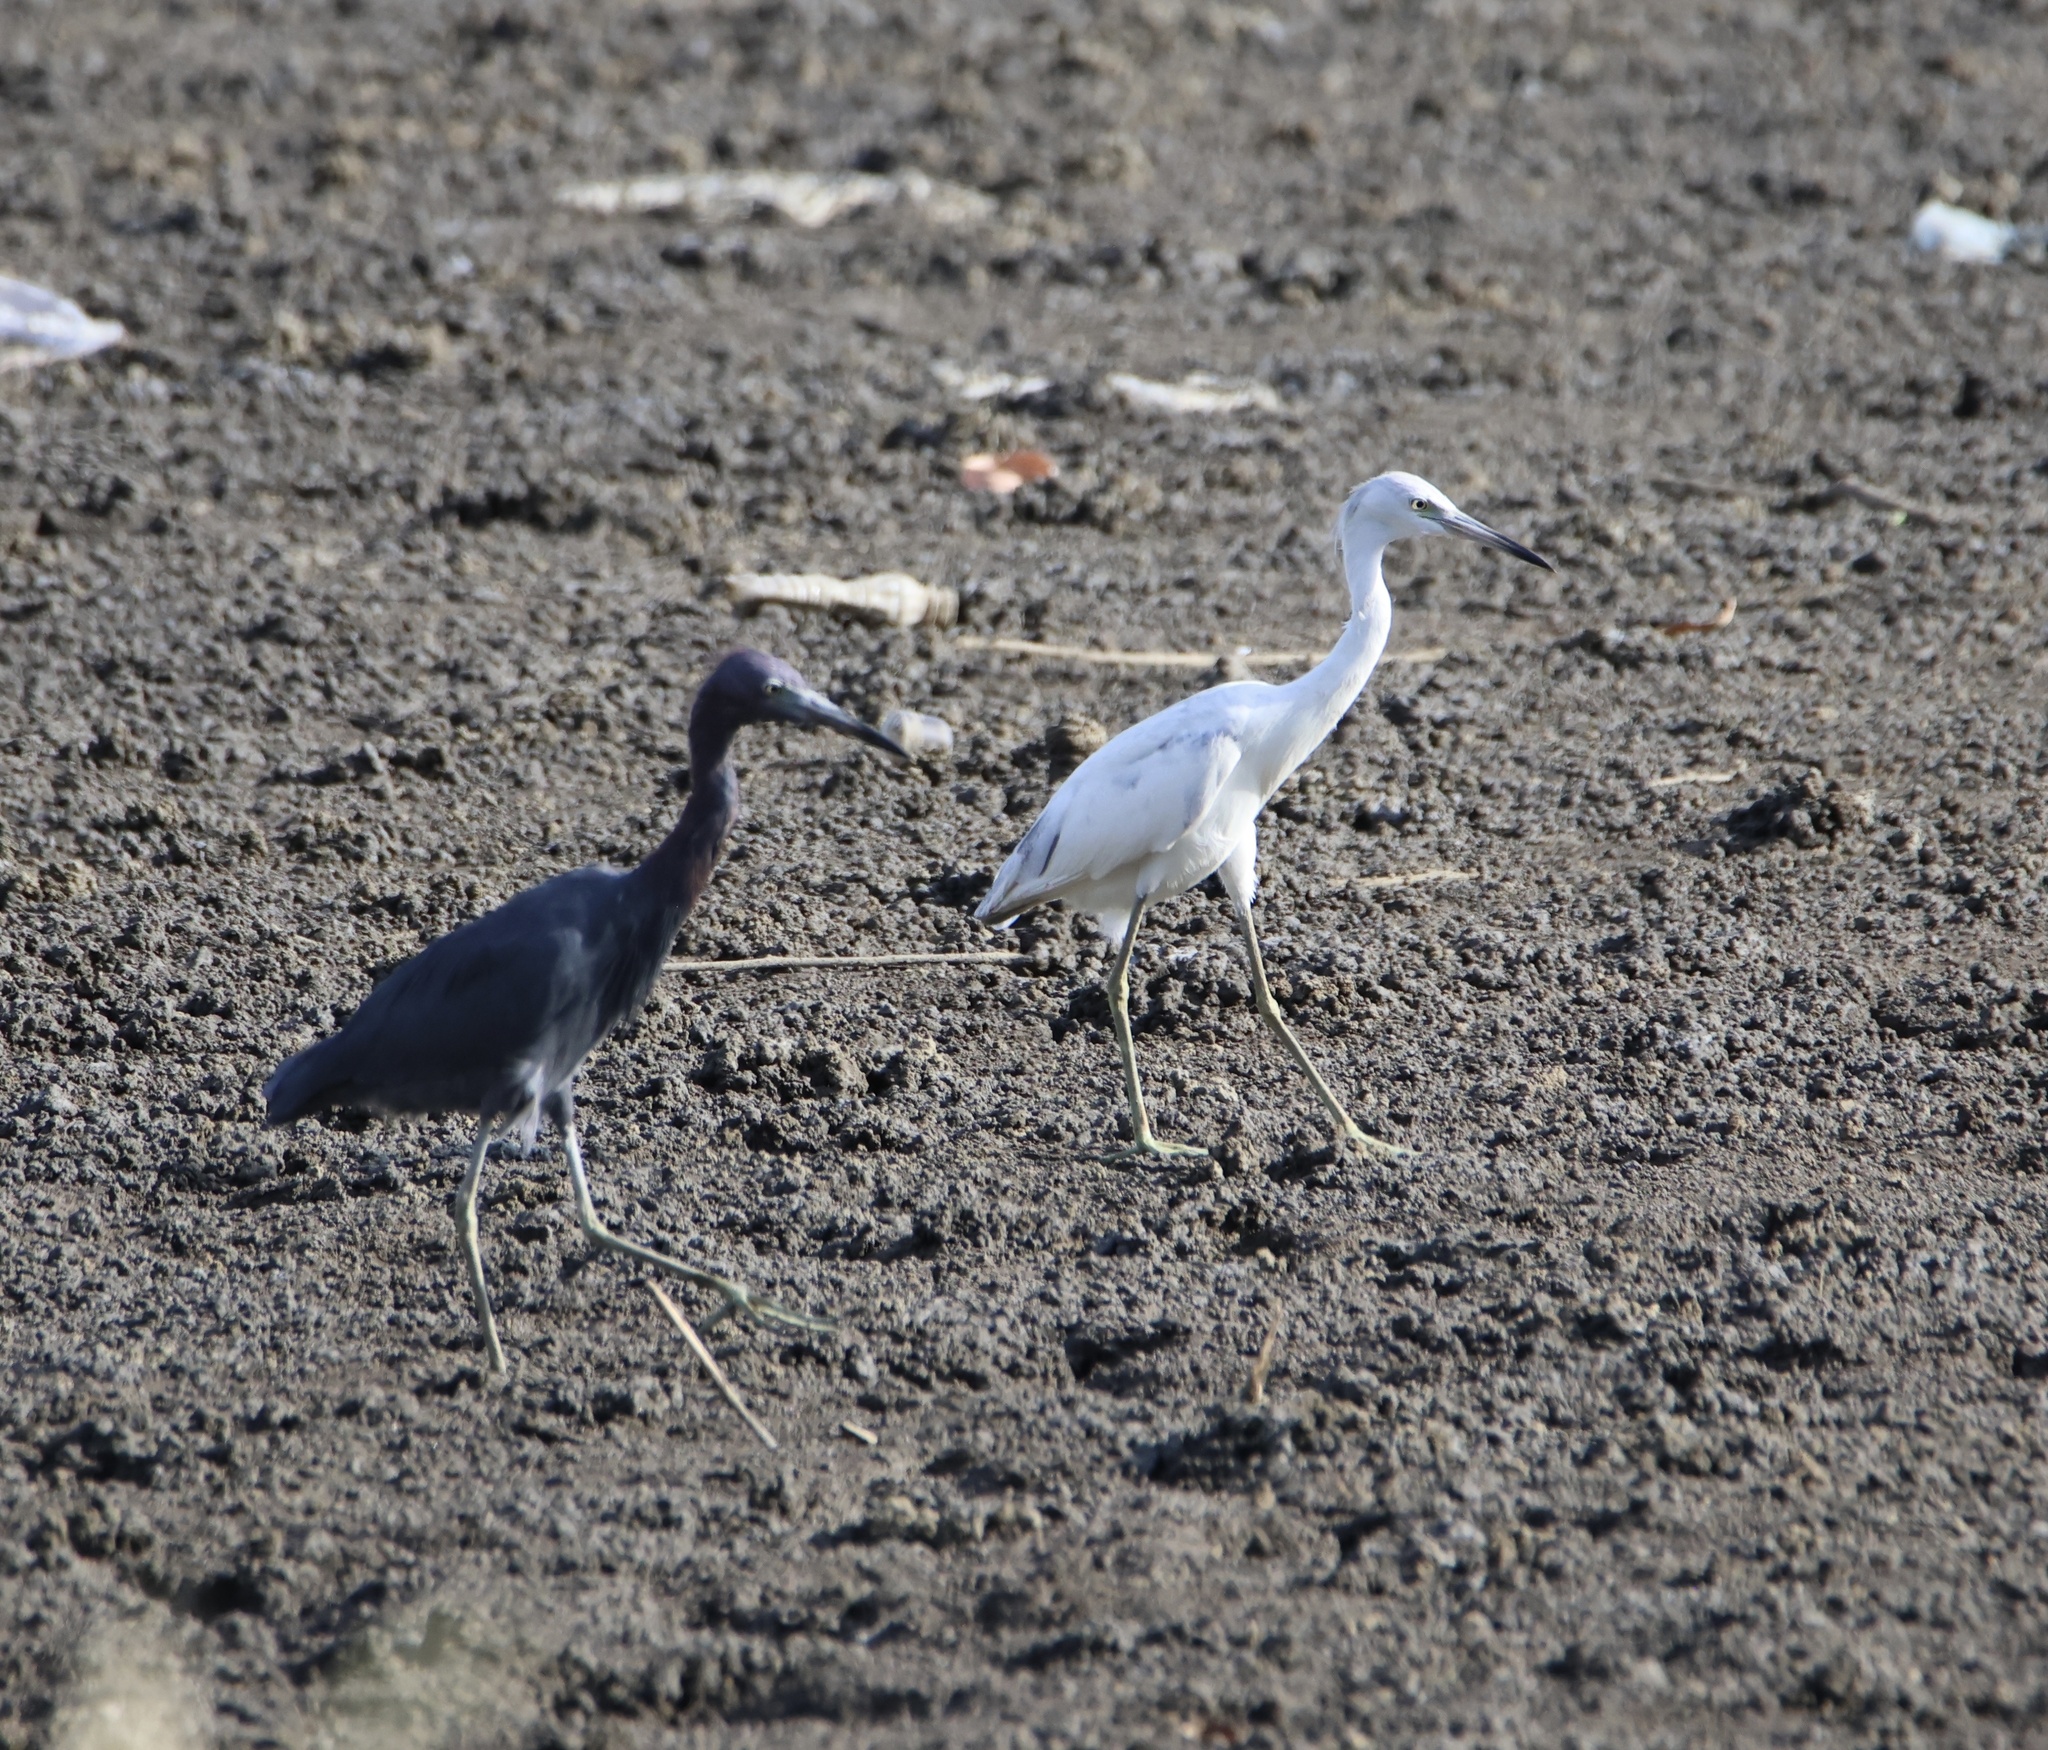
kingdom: Animalia
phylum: Chordata
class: Aves
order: Pelecaniformes
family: Ardeidae
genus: Egretta
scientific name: Egretta caerulea
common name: Little blue heron
